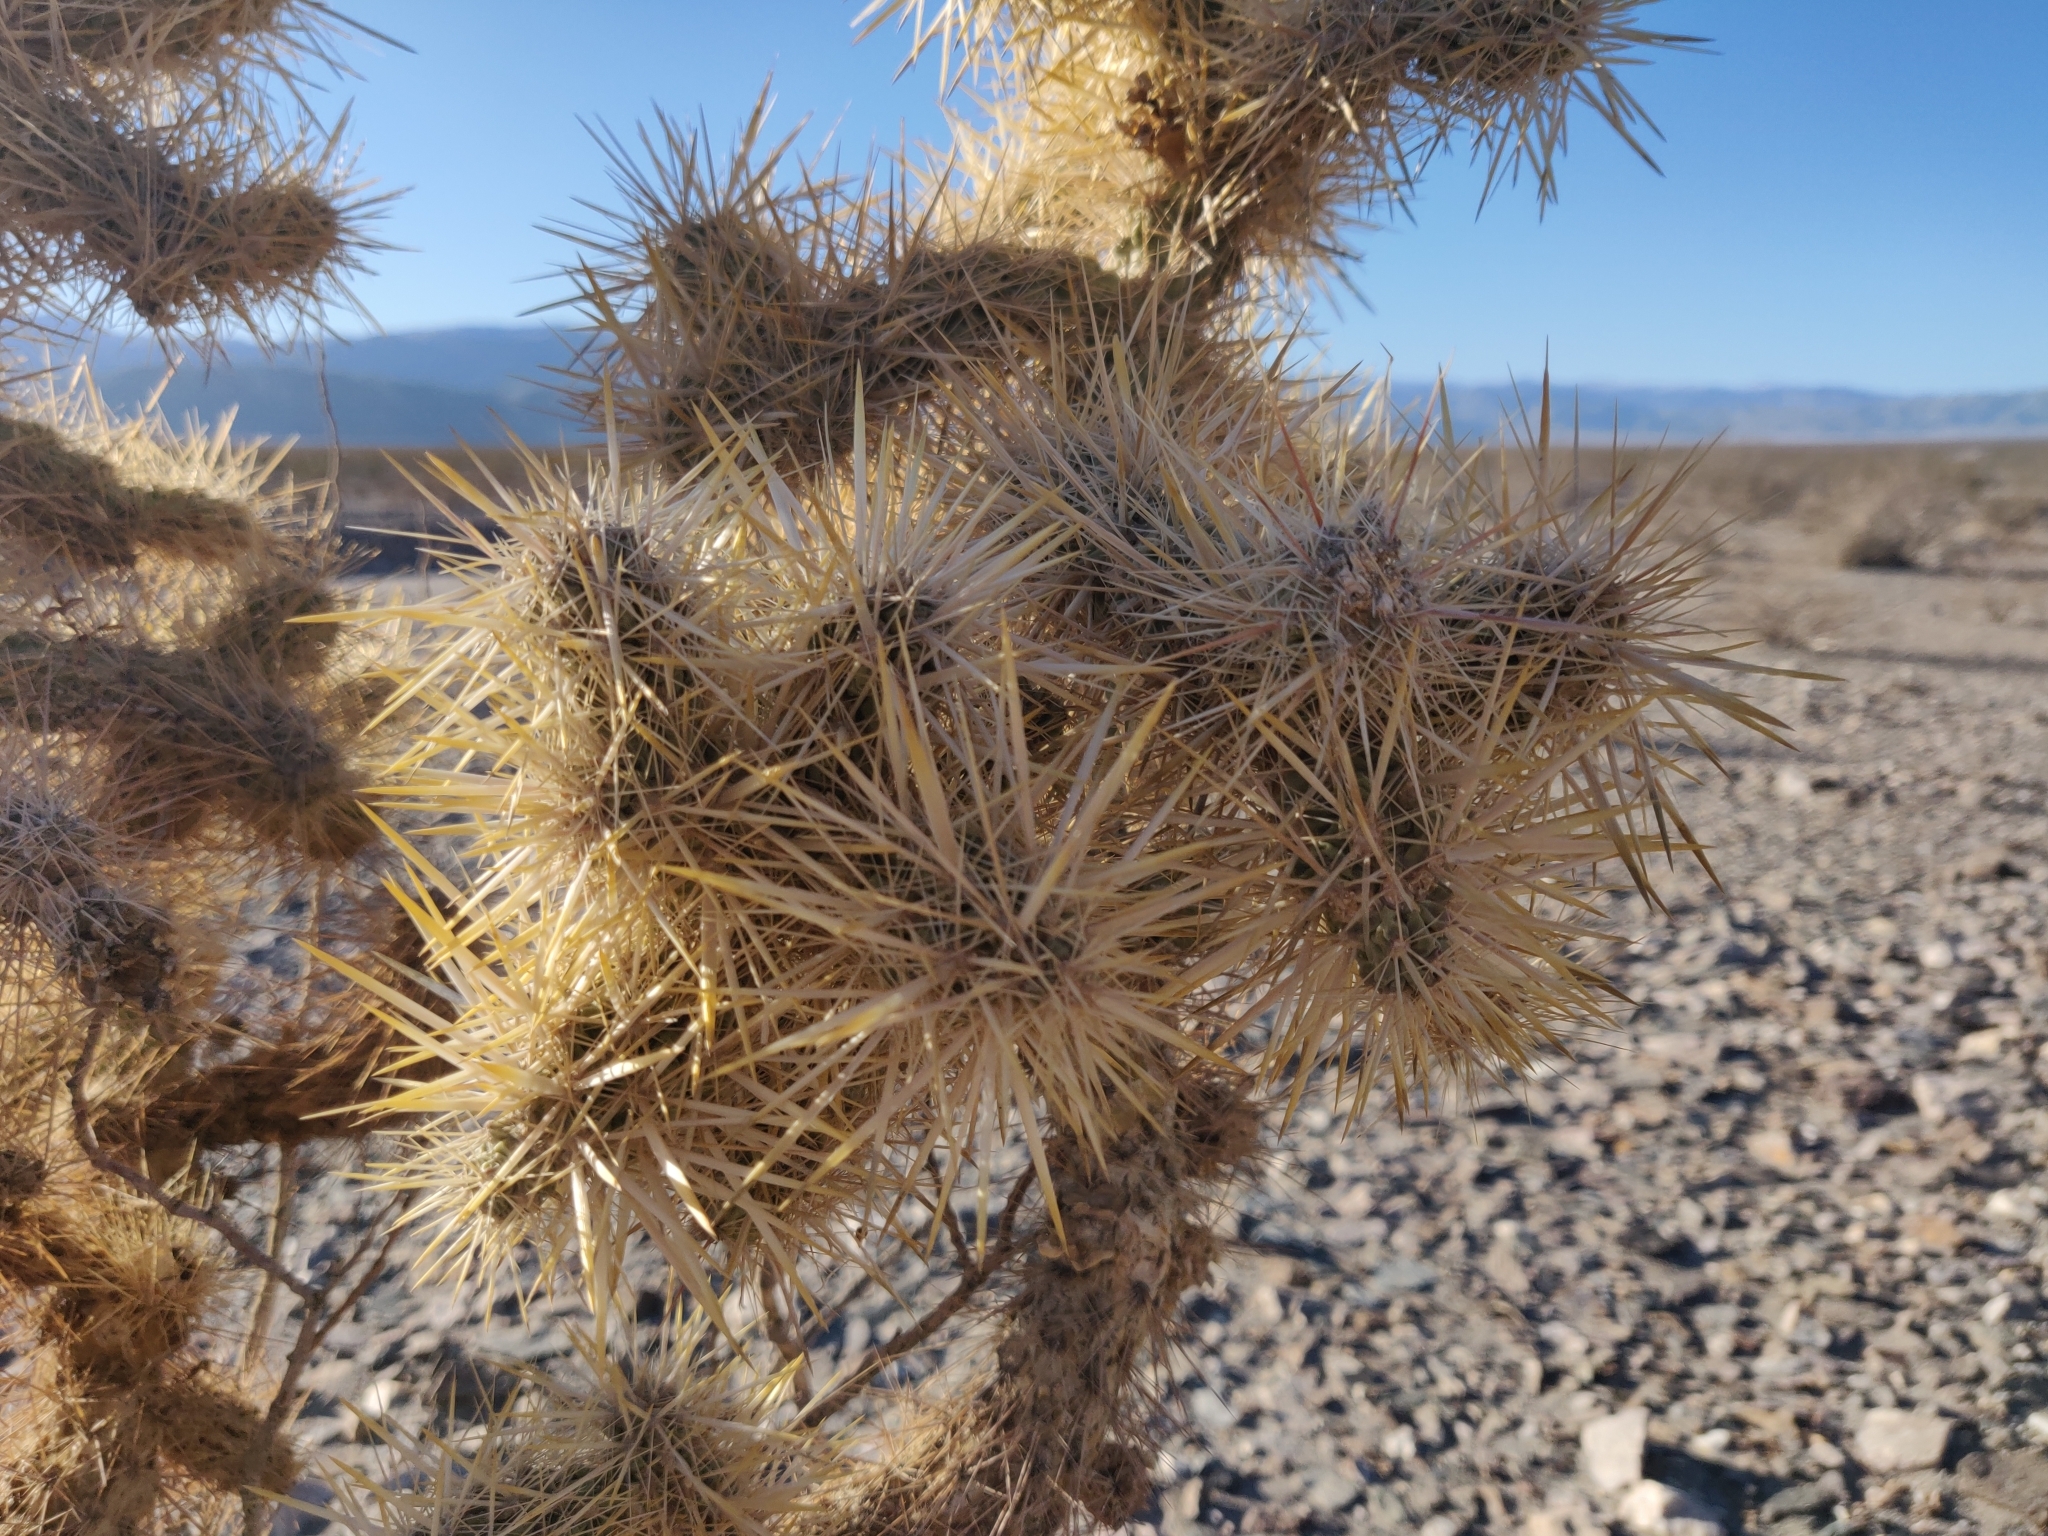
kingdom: Plantae
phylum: Tracheophyta
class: Magnoliopsida
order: Caryophyllales
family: Cactaceae
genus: Cylindropuntia
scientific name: Cylindropuntia echinocarpa
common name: Ground cholla
